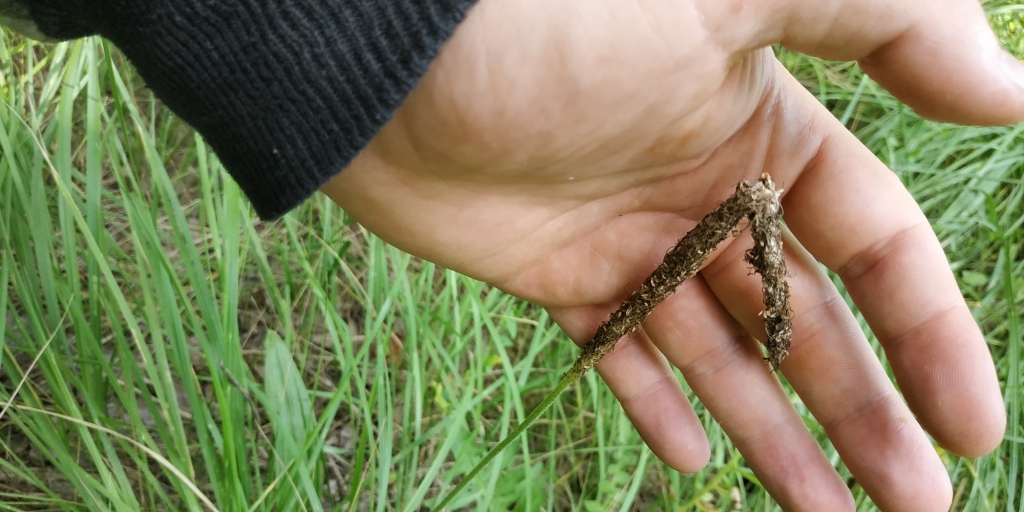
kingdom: Plantae
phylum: Tracheophyta
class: Magnoliopsida
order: Lamiales
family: Plantaginaceae
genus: Plantago
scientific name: Plantago urvillei
